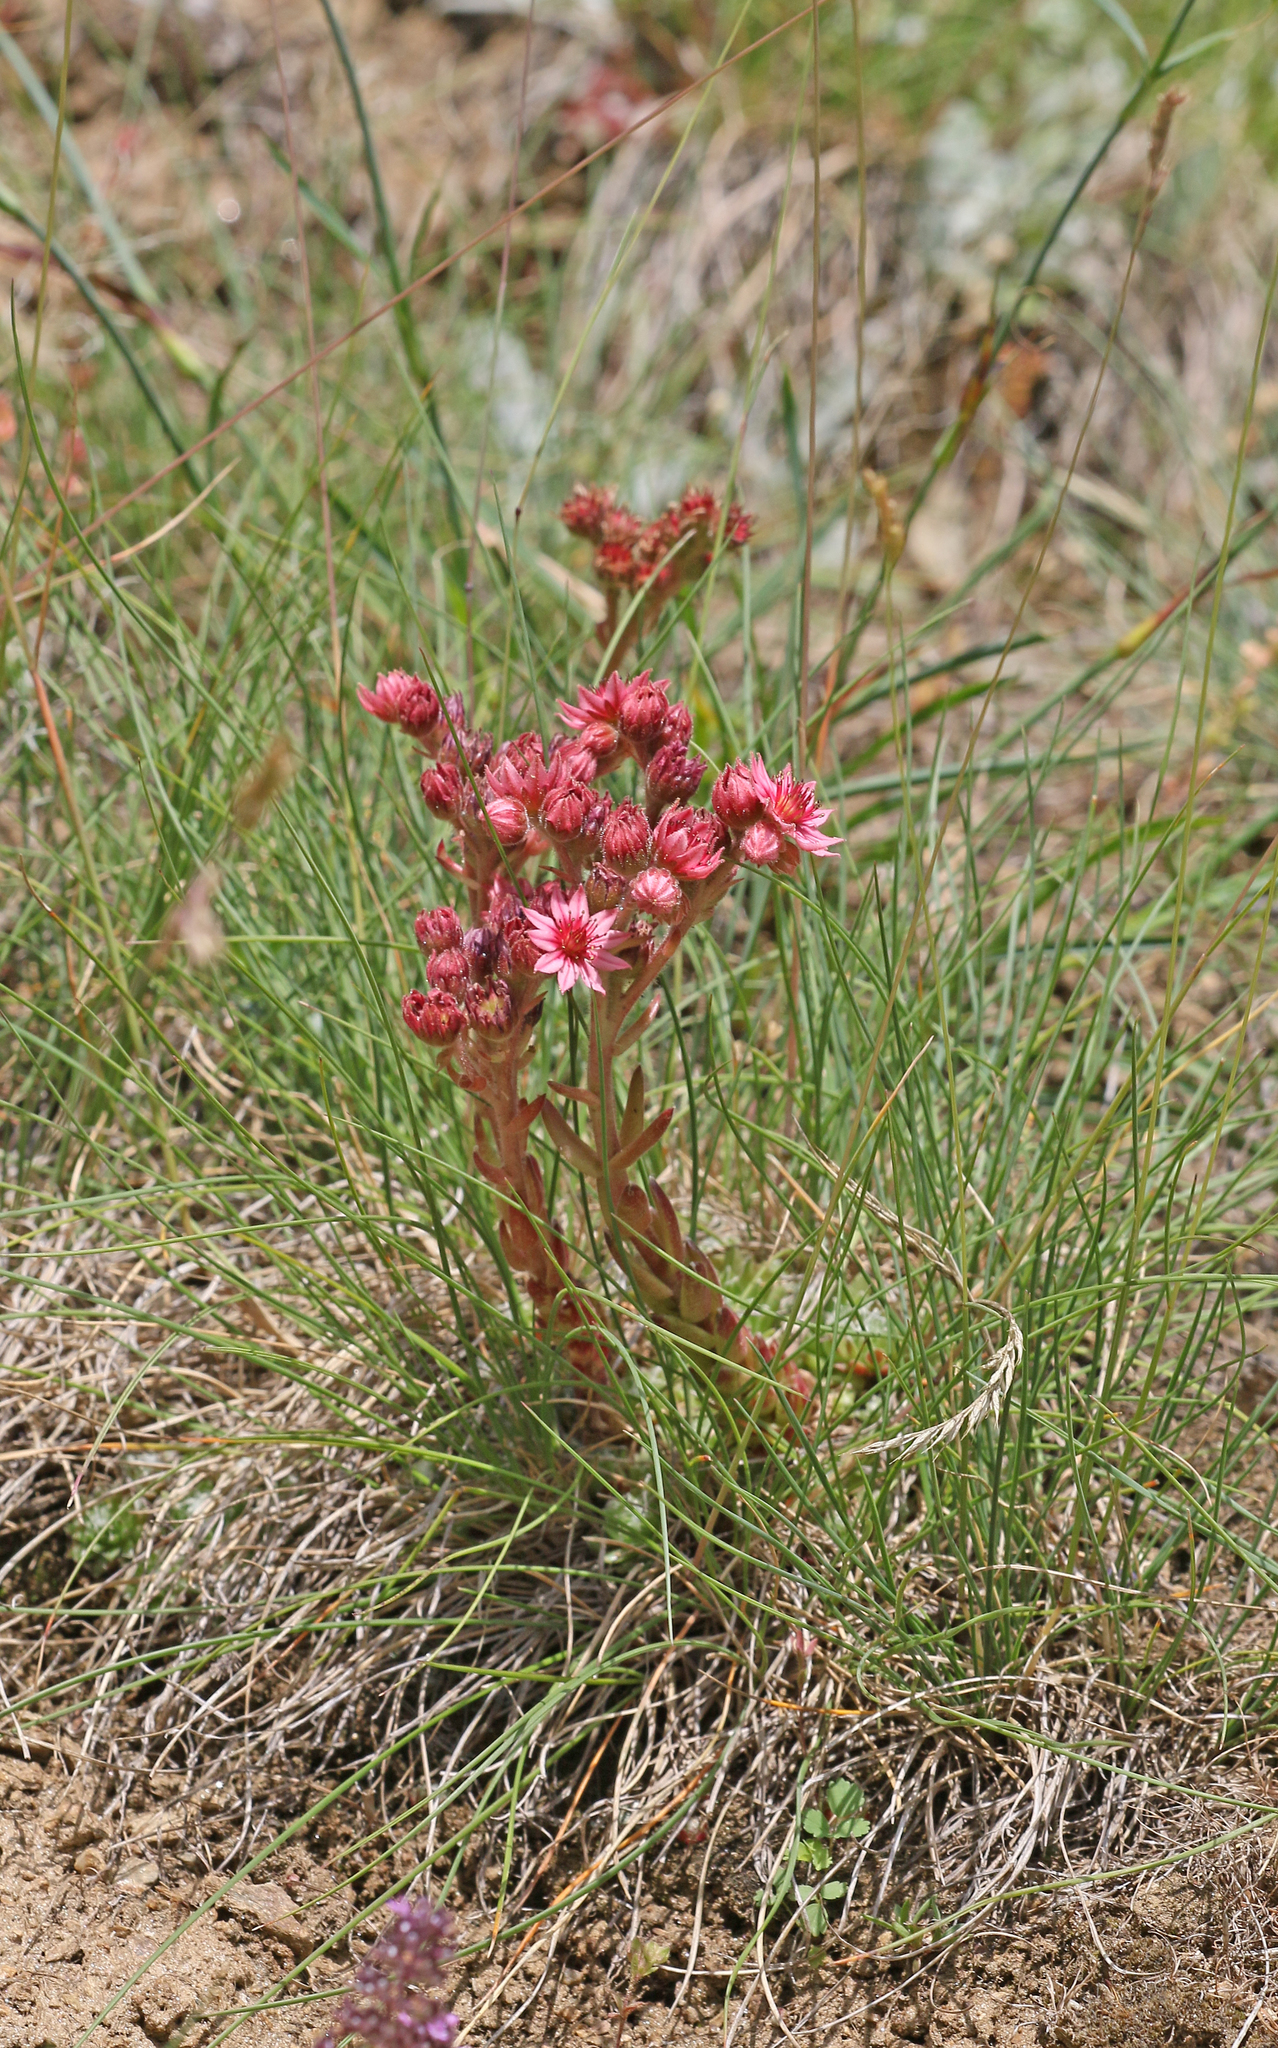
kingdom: Plantae
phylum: Tracheophyta
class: Magnoliopsida
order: Saxifragales
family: Crassulaceae
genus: Sempervivum
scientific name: Sempervivum arachnoideum
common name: Cobweb house-leek
